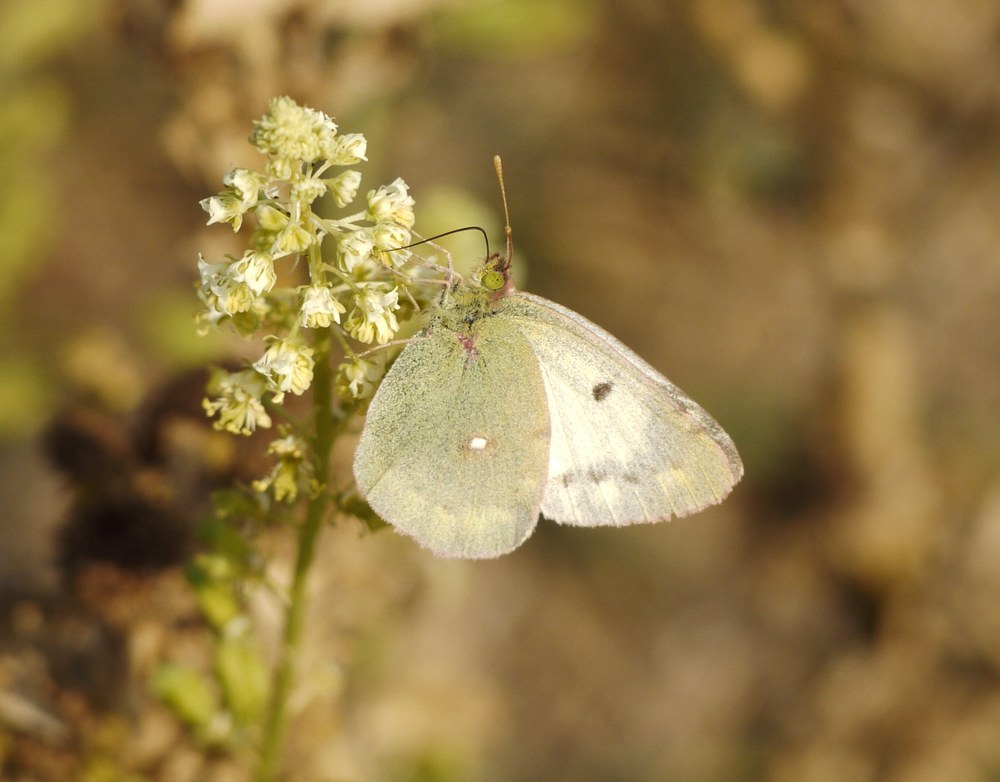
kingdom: Animalia
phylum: Arthropoda
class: Insecta
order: Lepidoptera
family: Pieridae
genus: Colias
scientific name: Colias erate
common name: Eastern pale clouded yellow
